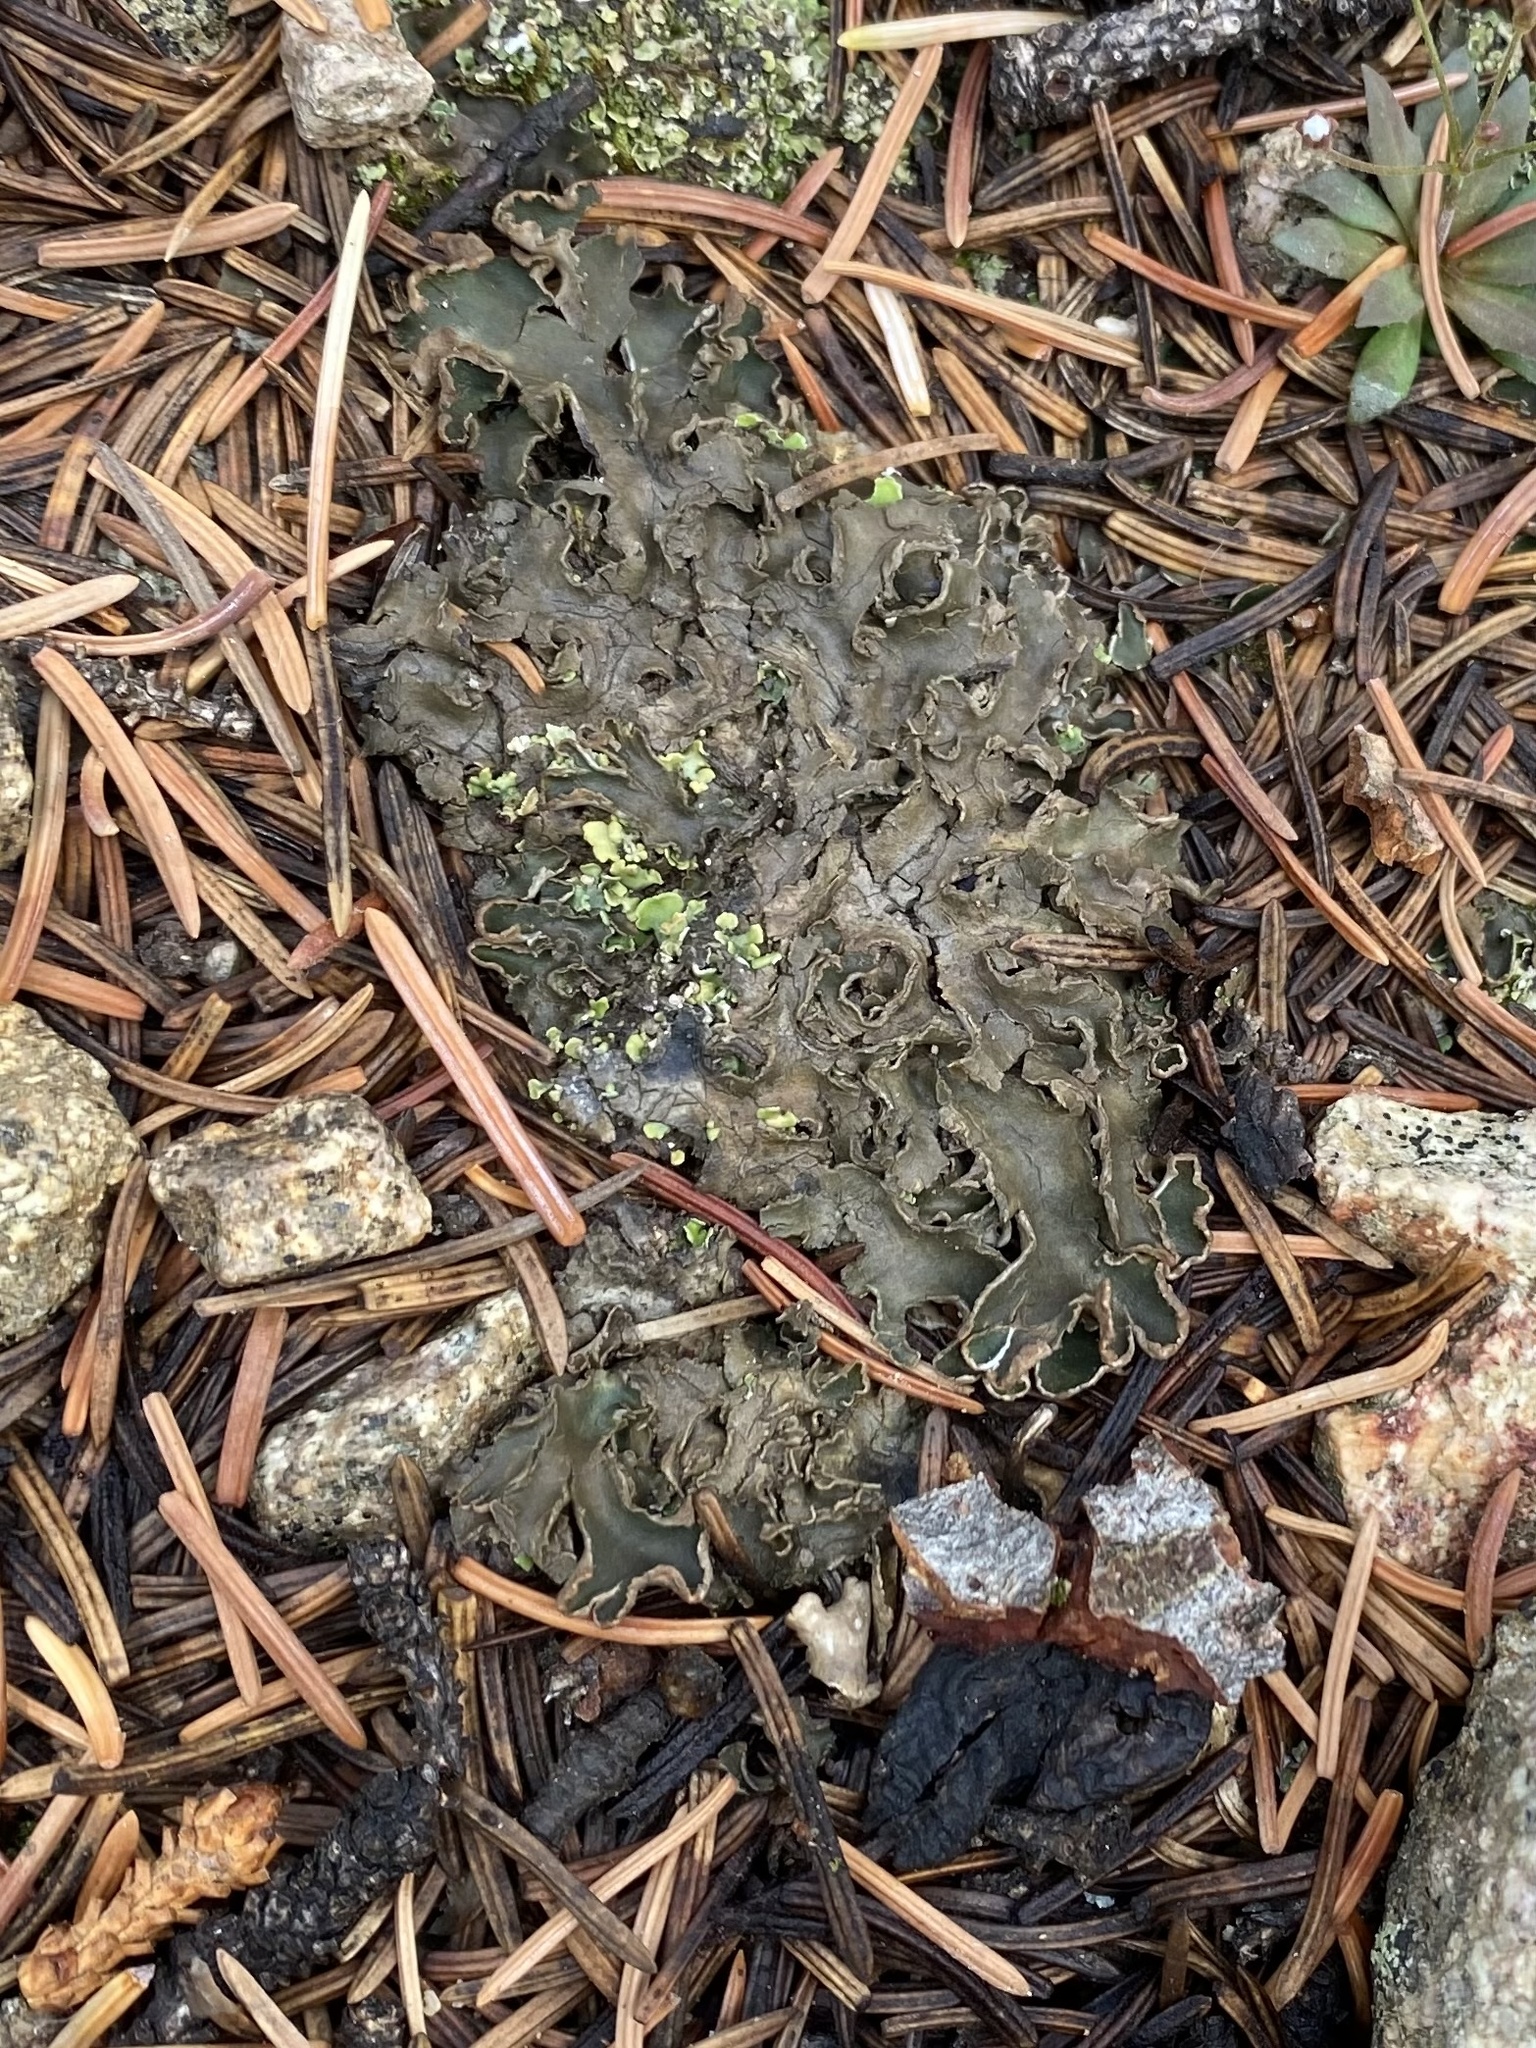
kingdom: Fungi
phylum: Ascomycota
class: Lecanoromycetes
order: Peltigerales
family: Peltigeraceae
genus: Peltigera
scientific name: Peltigera
